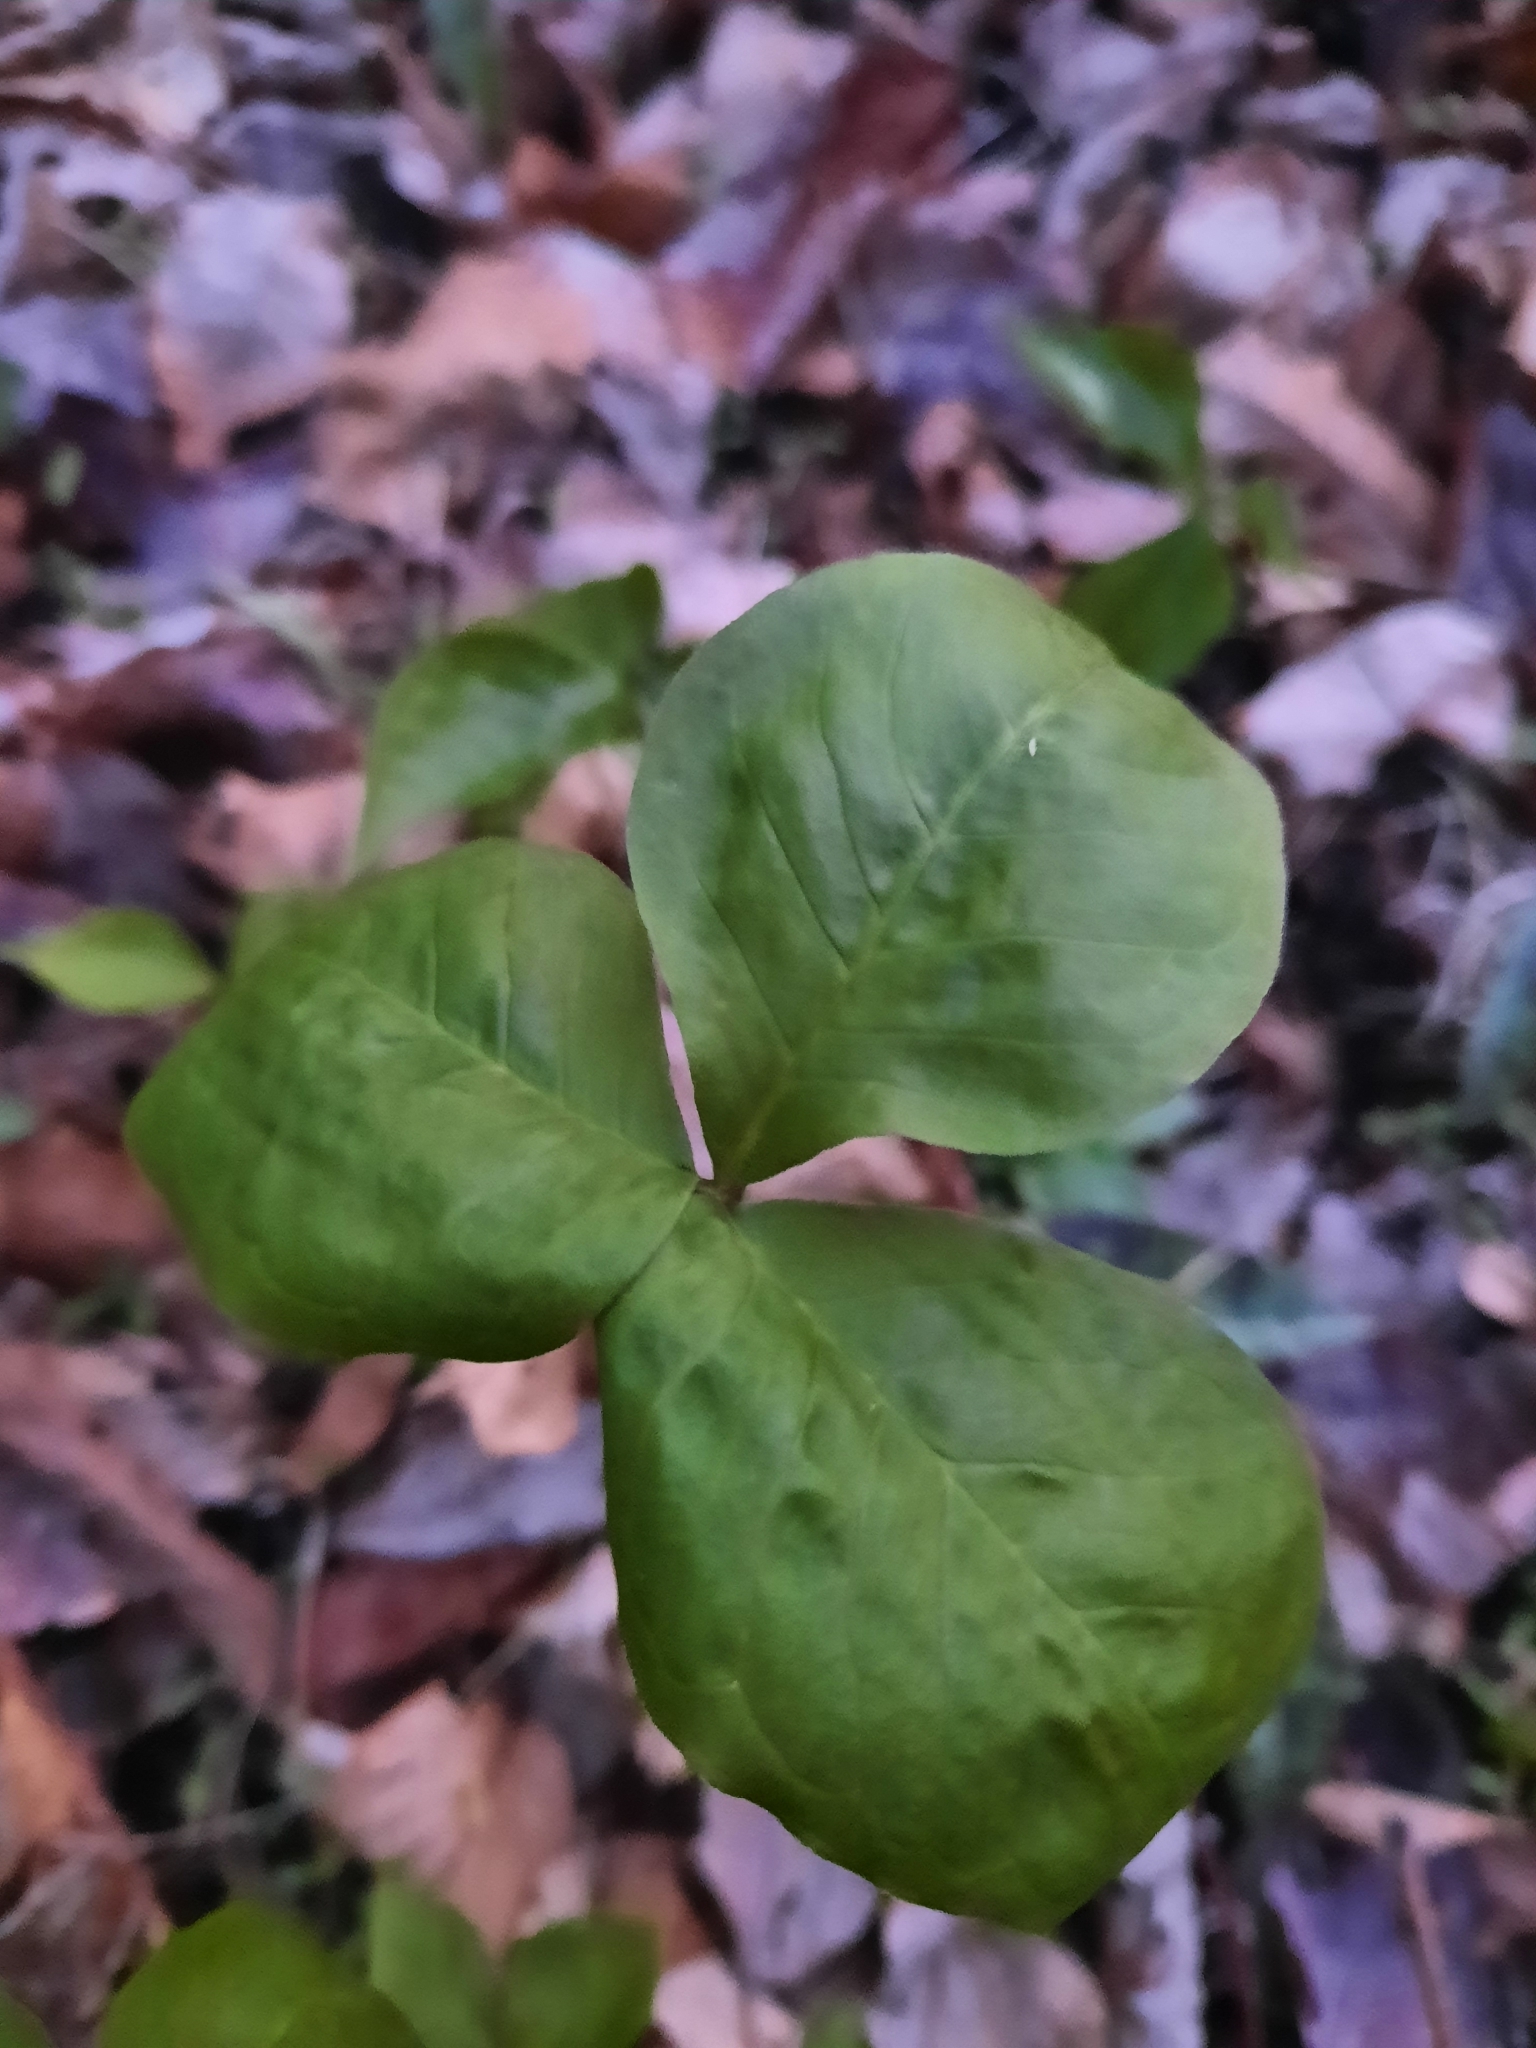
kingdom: Plantae
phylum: Tracheophyta
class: Liliopsida
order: Alismatales
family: Araceae
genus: Arisaema
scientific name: Arisaema triphyllum
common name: Jack-in-the-pulpit
